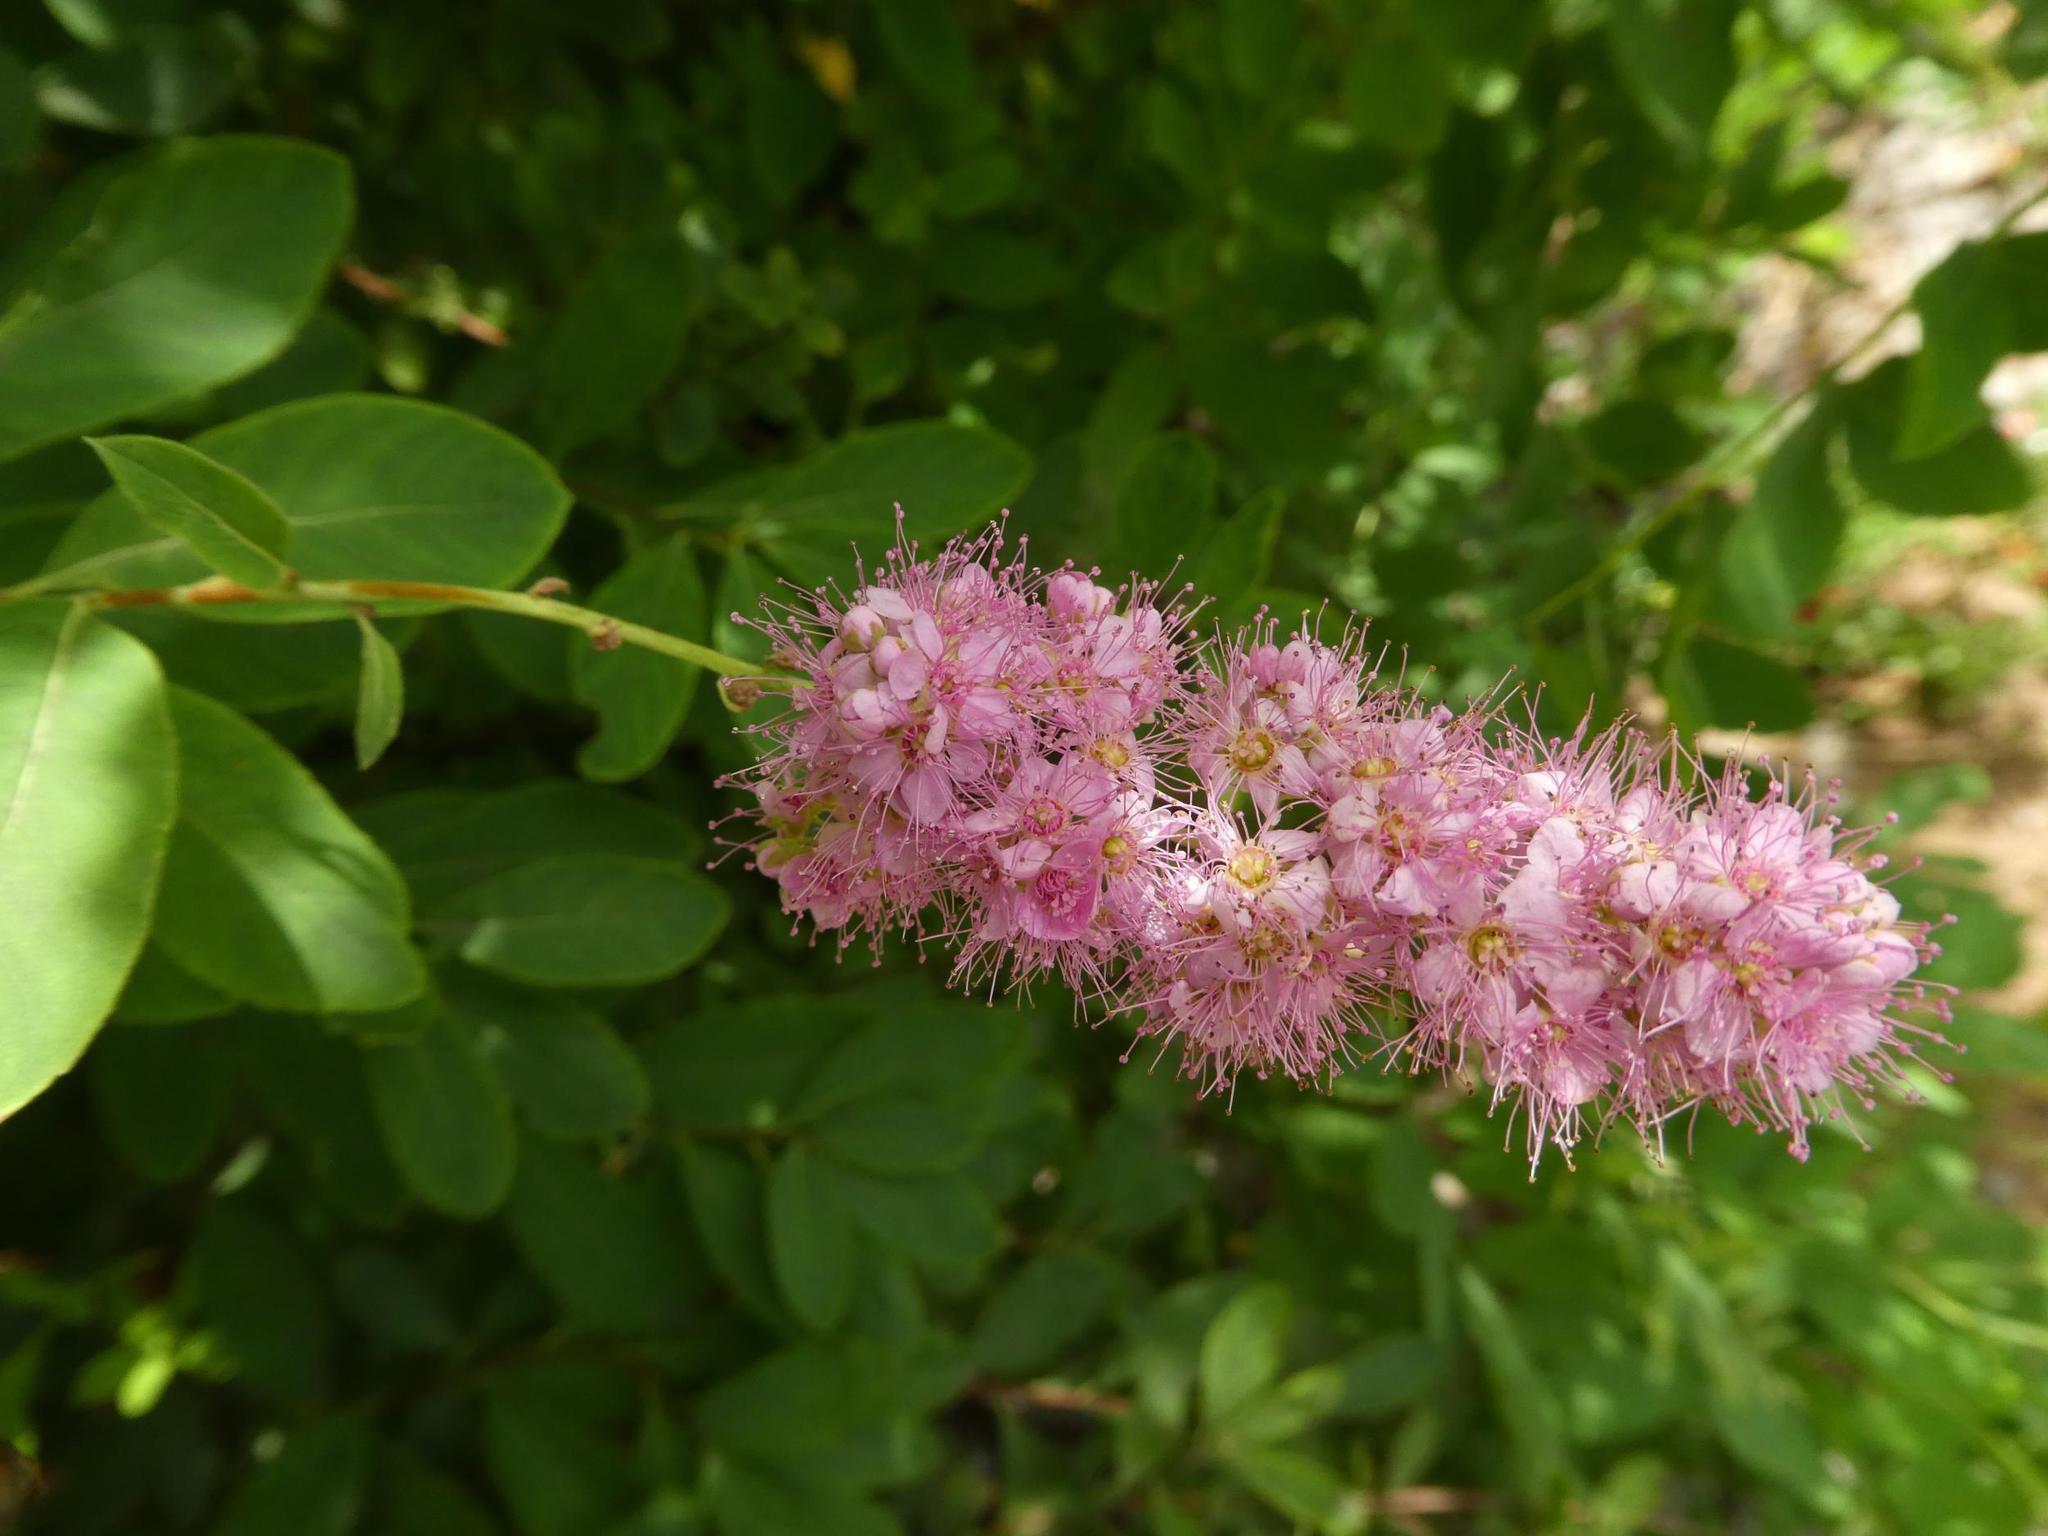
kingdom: Plantae
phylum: Tracheophyta
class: Magnoliopsida
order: Rosales
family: Rosaceae
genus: Spiraea
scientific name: Spiraea douglasii
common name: Steeplebush
